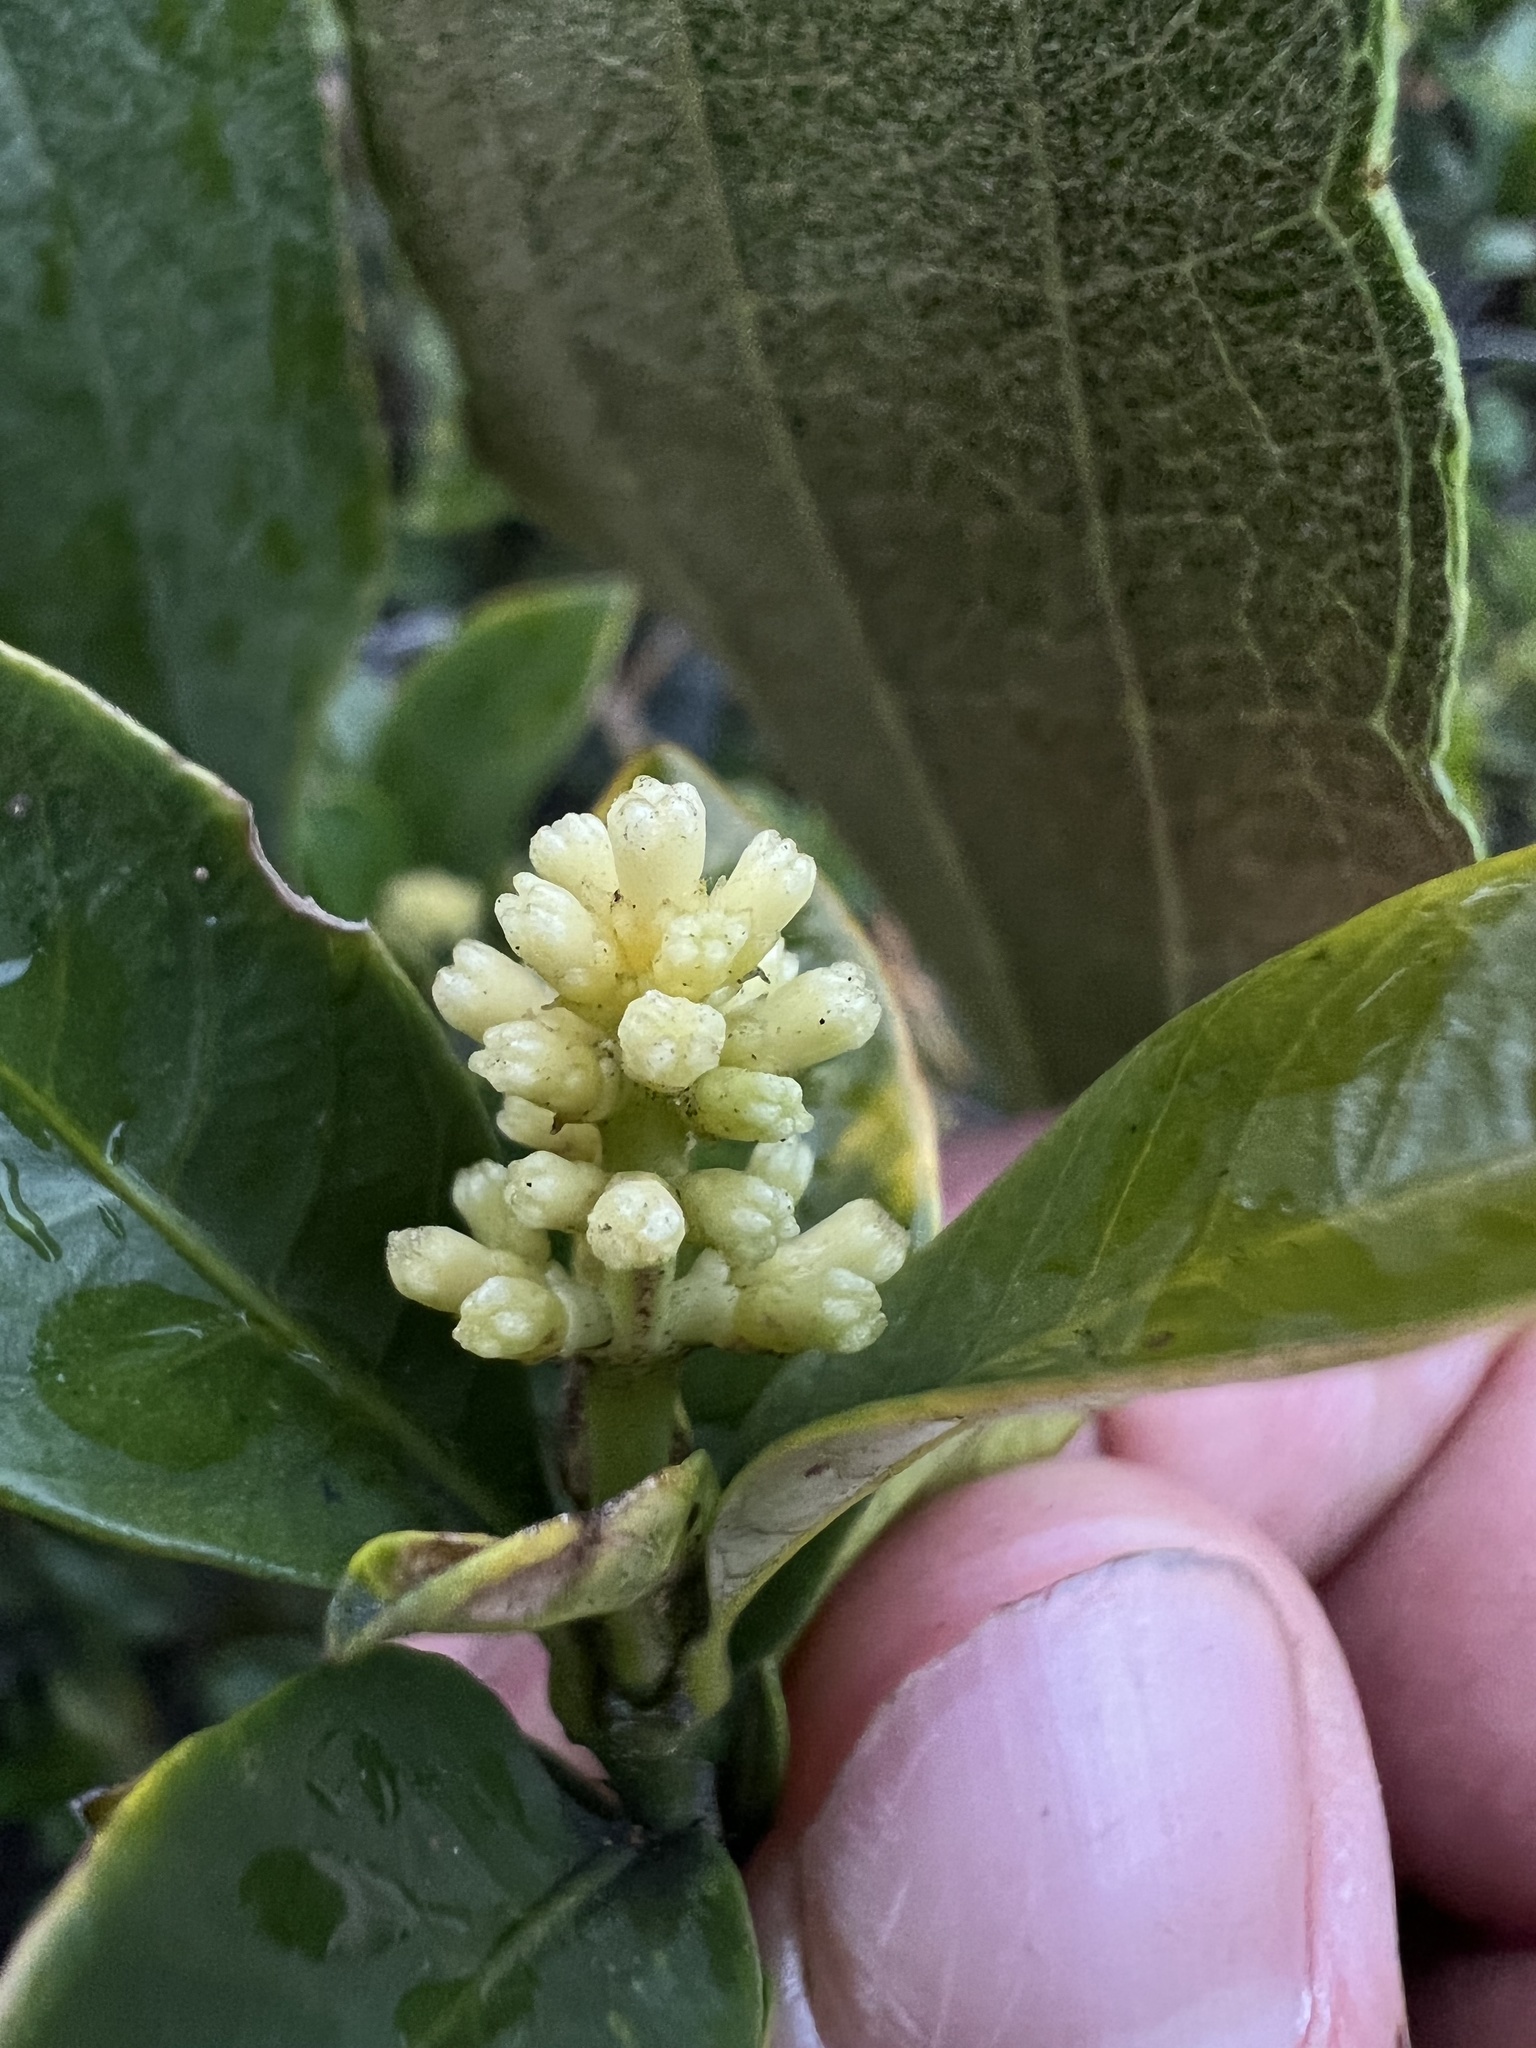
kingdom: Plantae
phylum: Tracheophyta
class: Magnoliopsida
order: Gentianales
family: Rubiaceae
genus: Palicourea
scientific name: Palicourea boqueronensis
